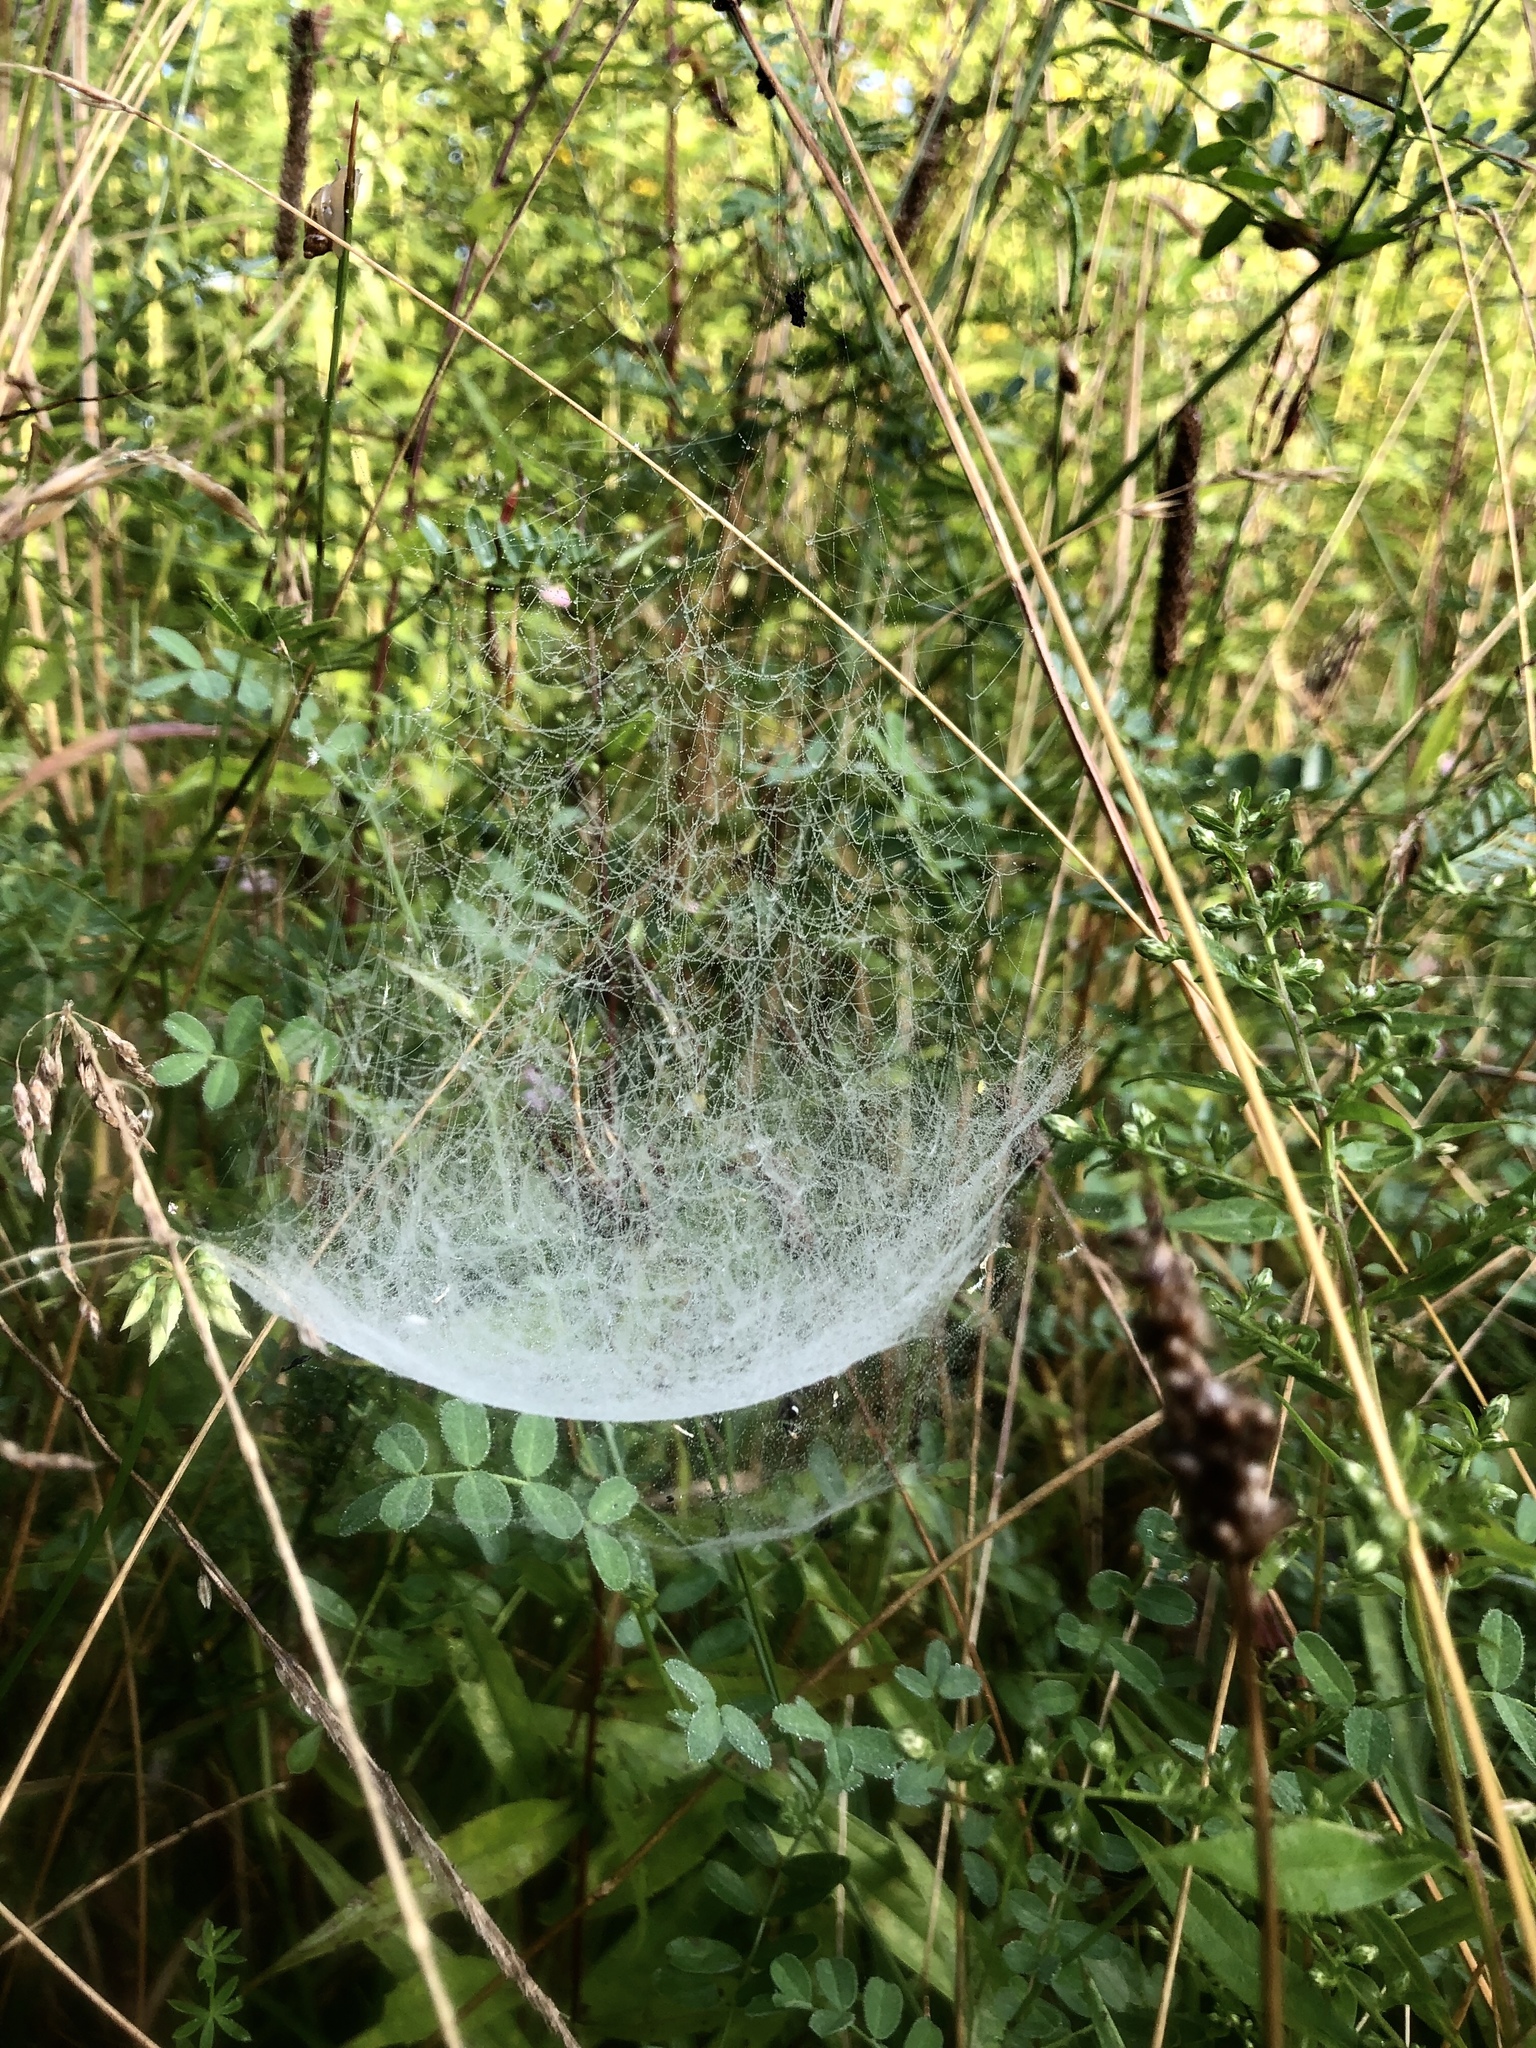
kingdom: Animalia
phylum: Arthropoda
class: Arachnida
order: Araneae
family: Linyphiidae
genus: Frontinella
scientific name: Frontinella pyramitela
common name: Bowl-and-doily spider
